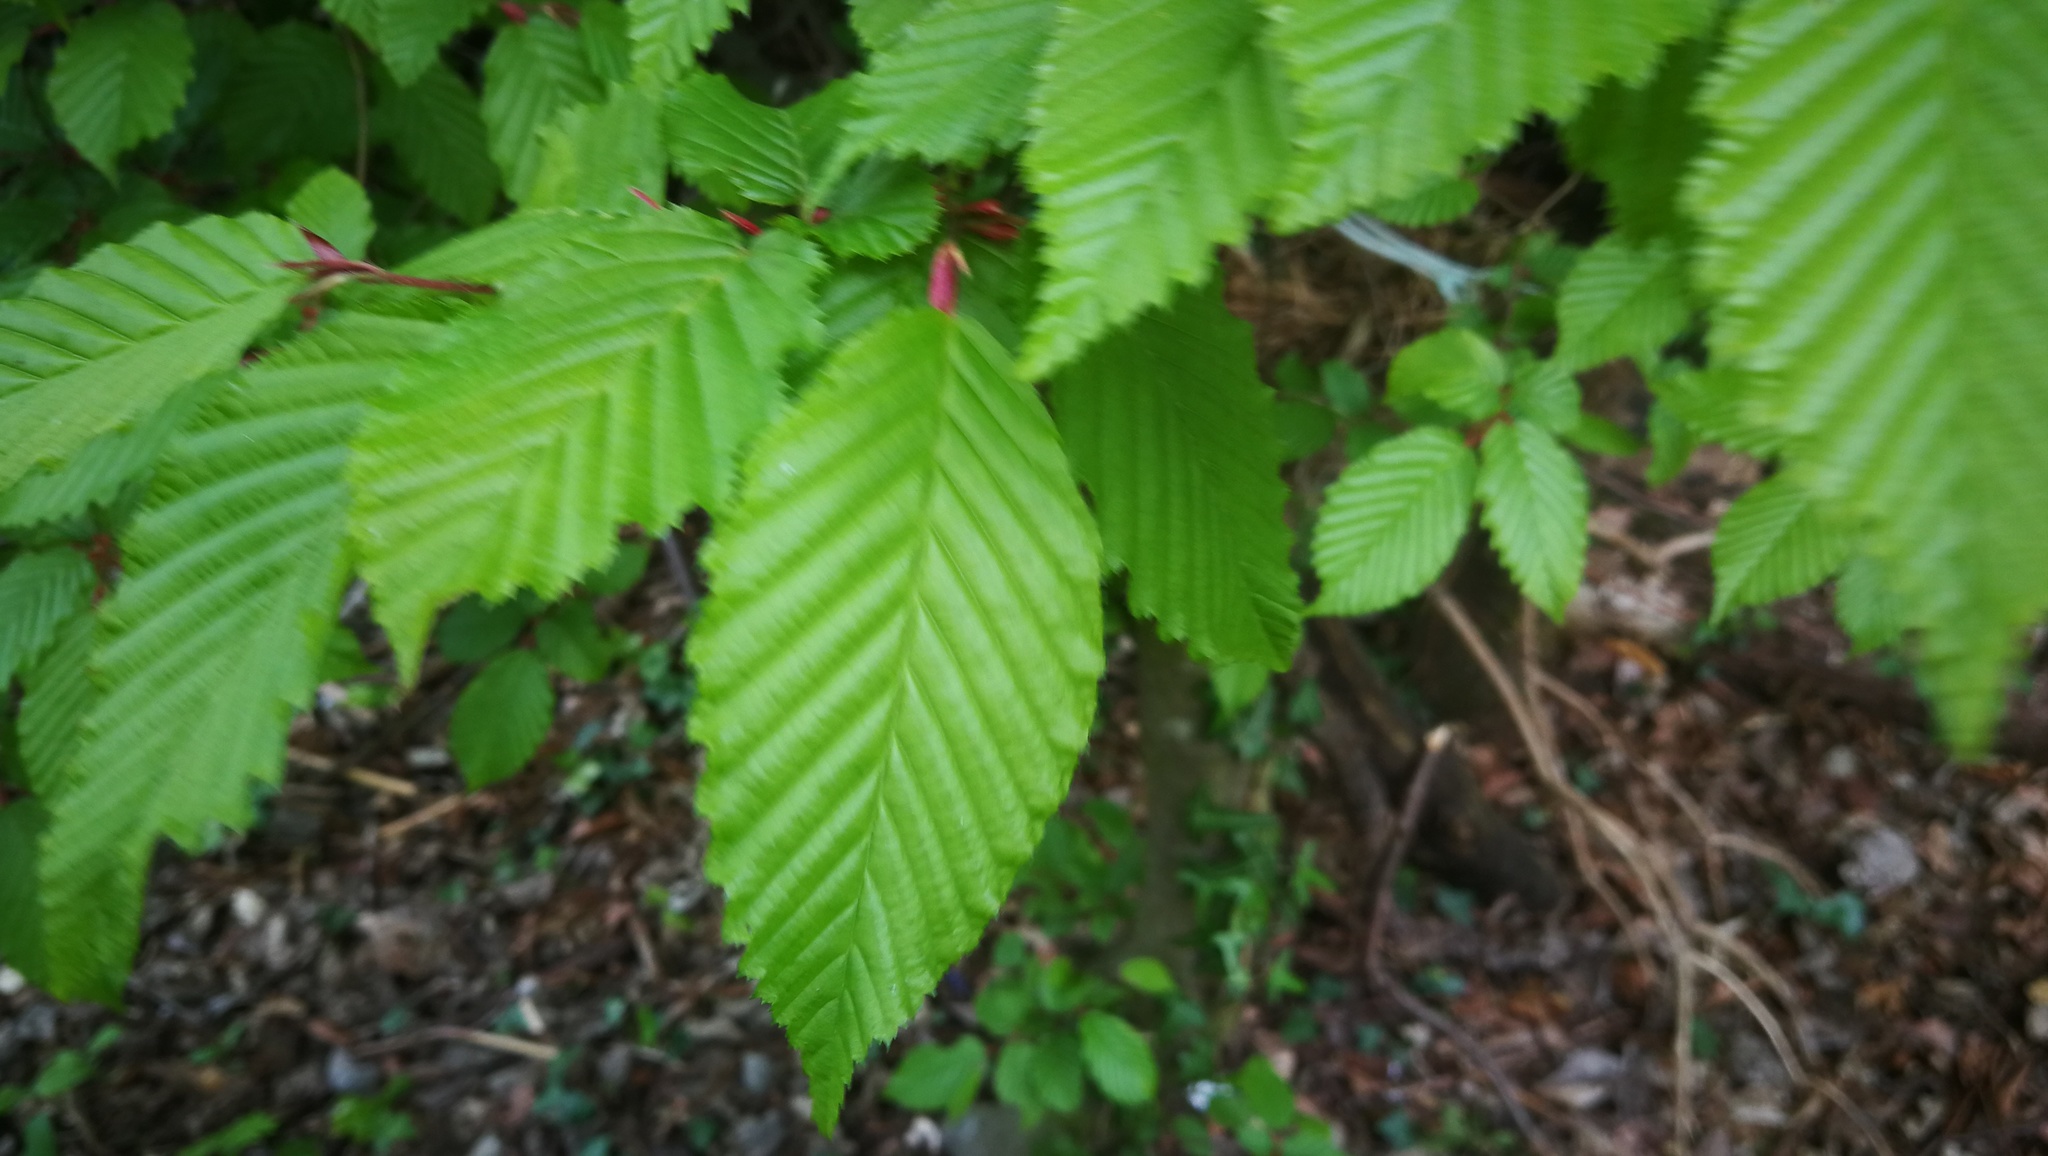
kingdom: Plantae
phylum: Tracheophyta
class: Magnoliopsida
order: Fagales
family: Betulaceae
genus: Carpinus
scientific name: Carpinus betulus
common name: Hornbeam
